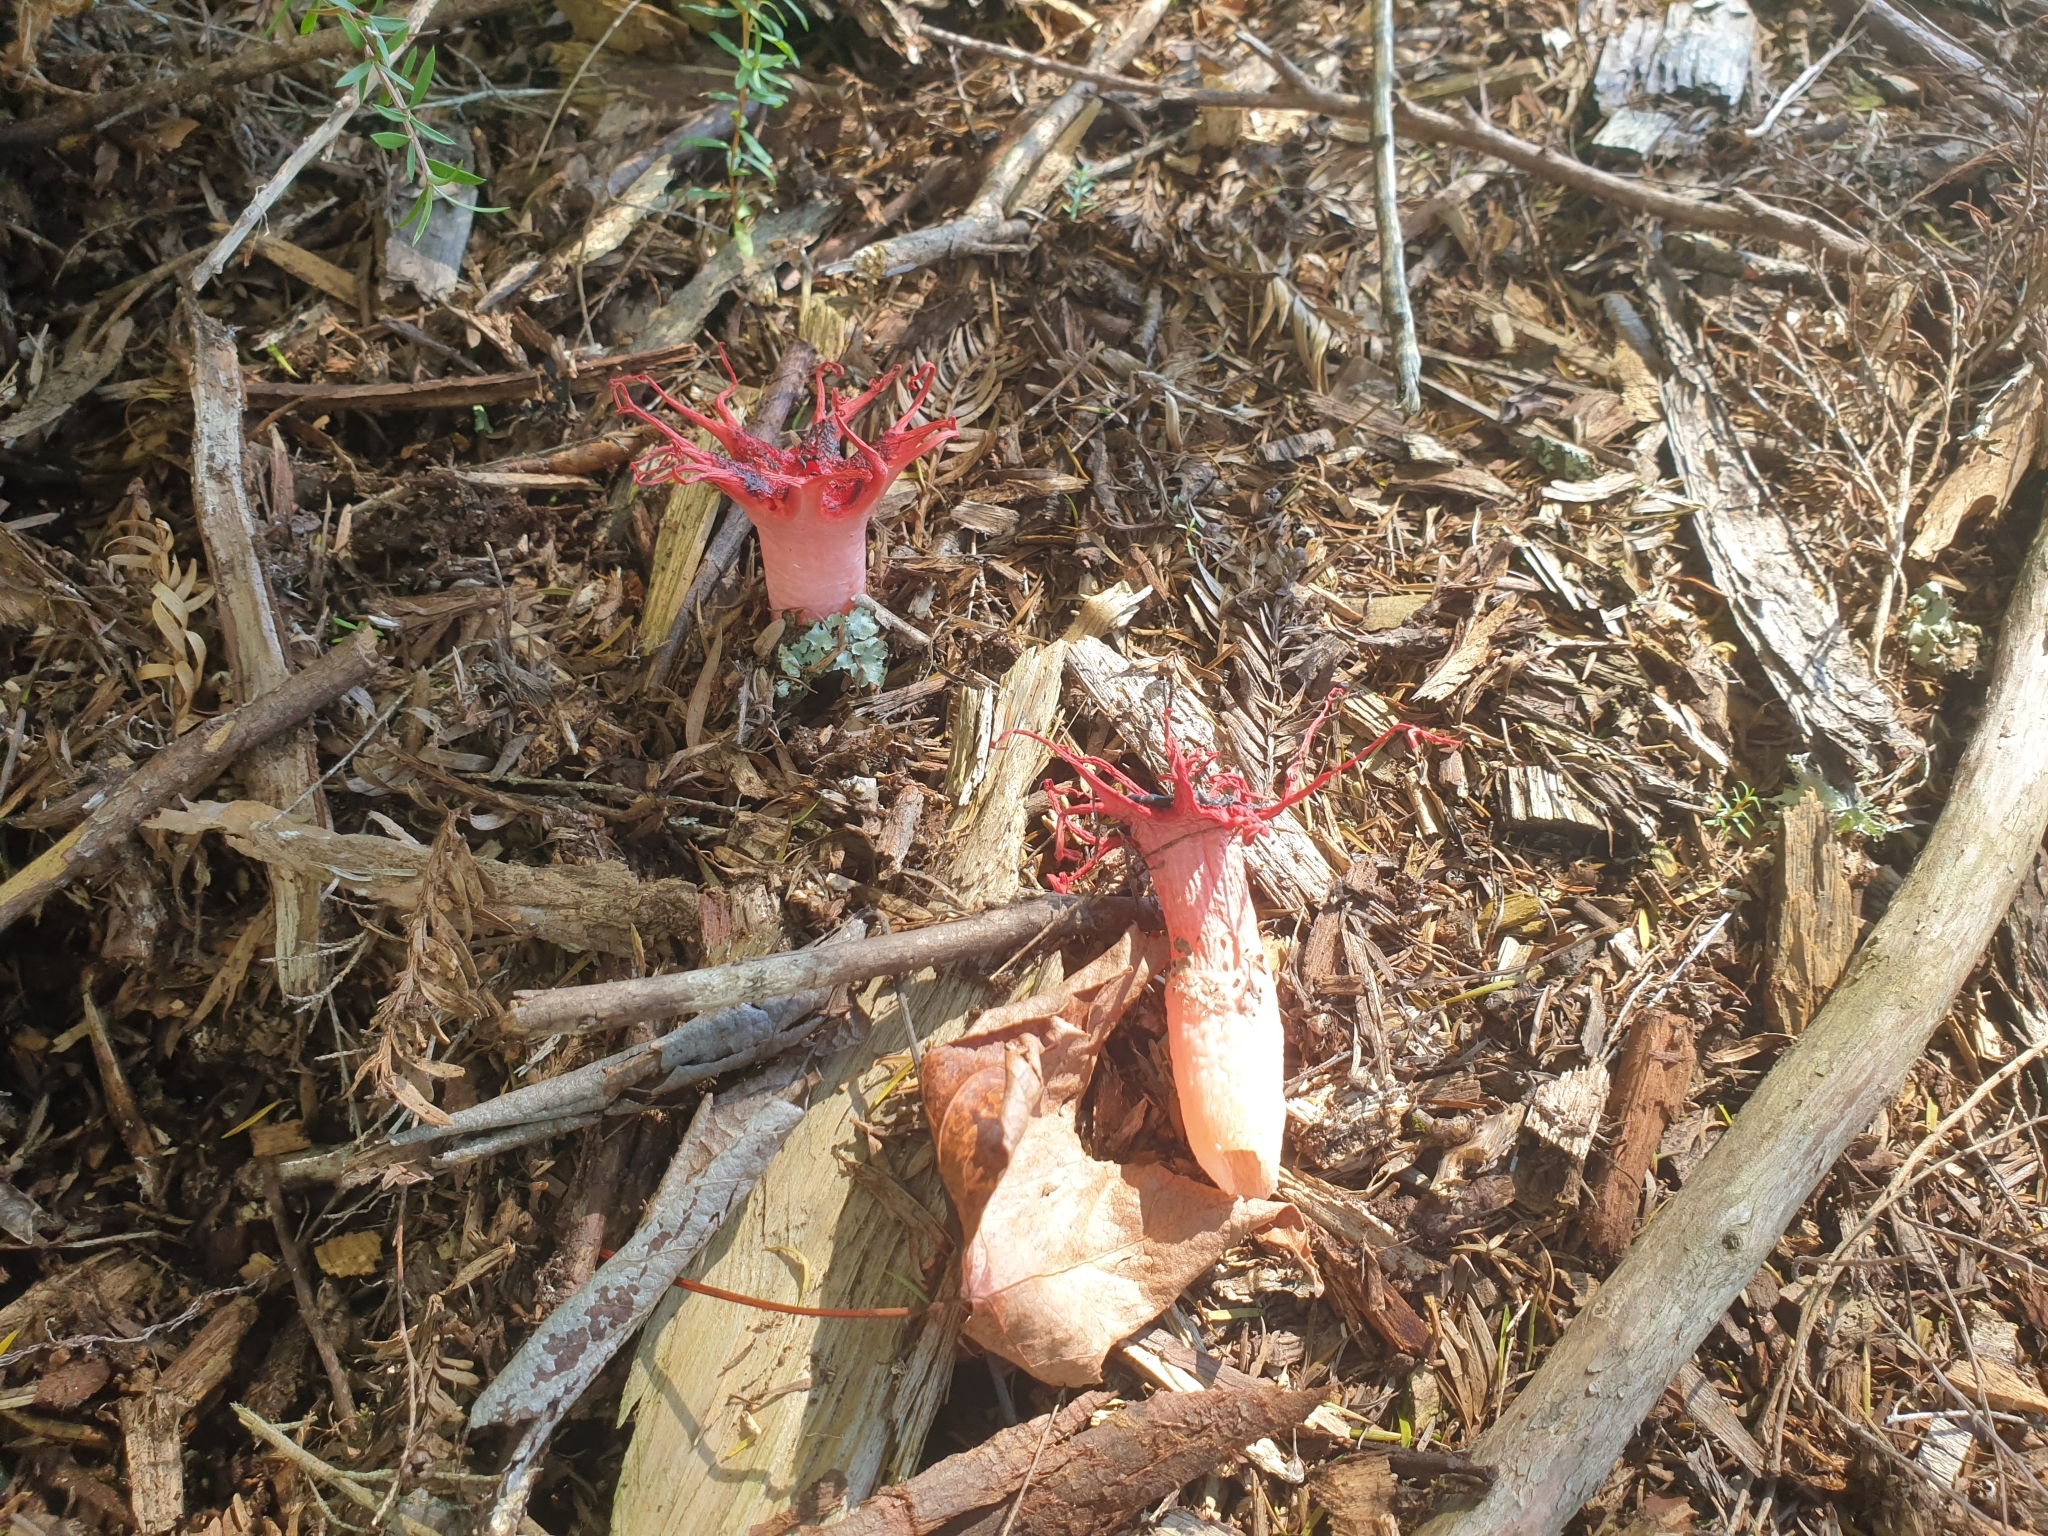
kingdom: Fungi
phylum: Basidiomycota
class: Agaricomycetes
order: Phallales
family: Phallaceae
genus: Aseroe
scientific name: Aseroe rubra
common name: Starfish fungus
